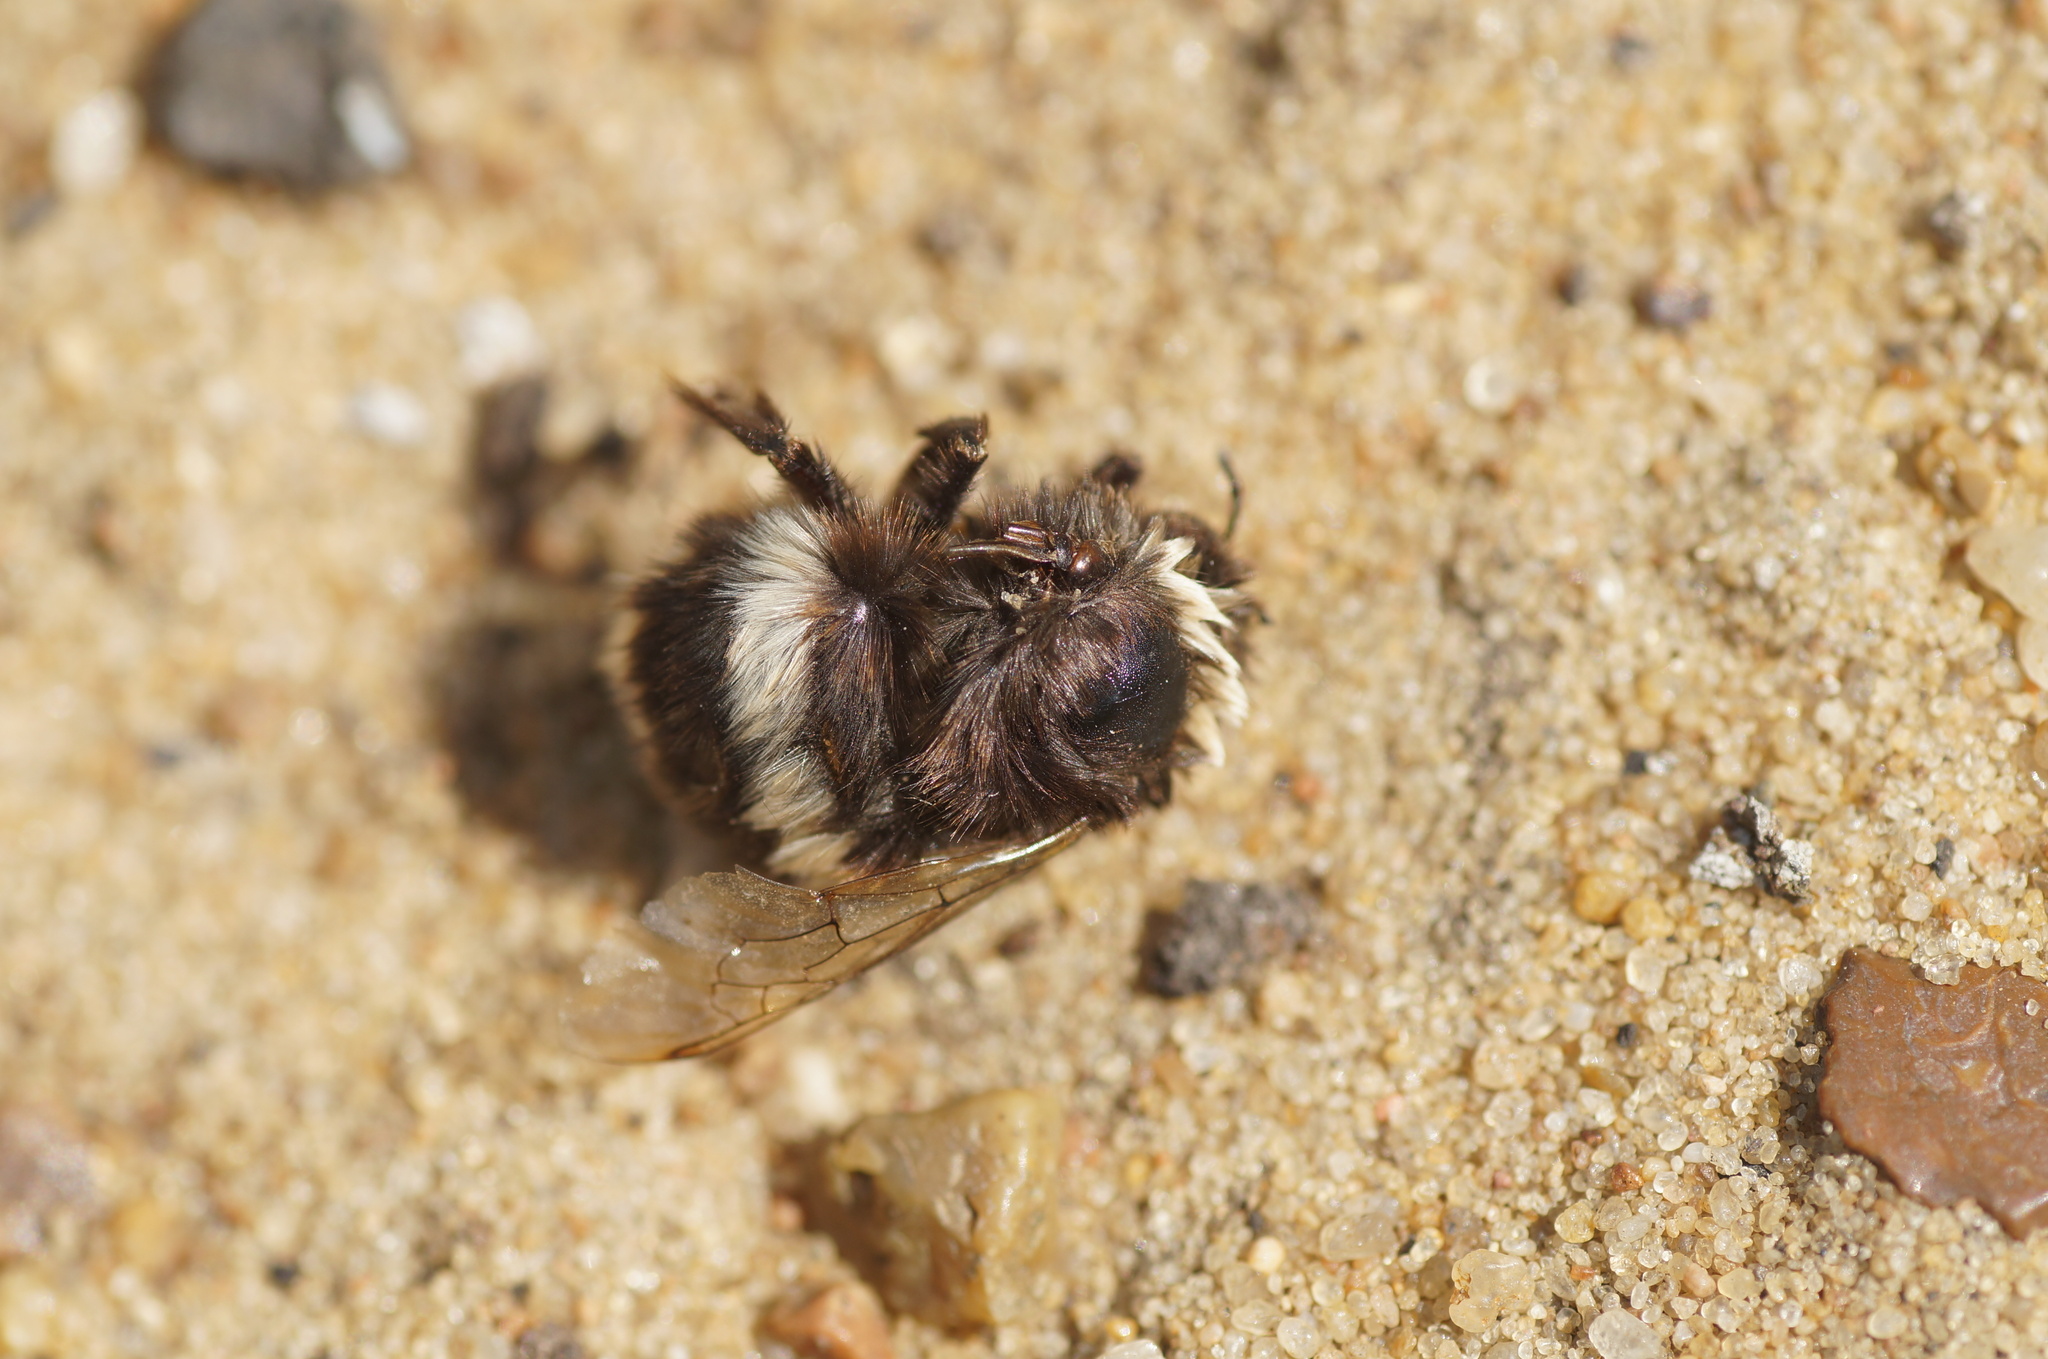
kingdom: Animalia
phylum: Arthropoda
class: Insecta
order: Hymenoptera
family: Apidae
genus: Bombus
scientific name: Bombus
